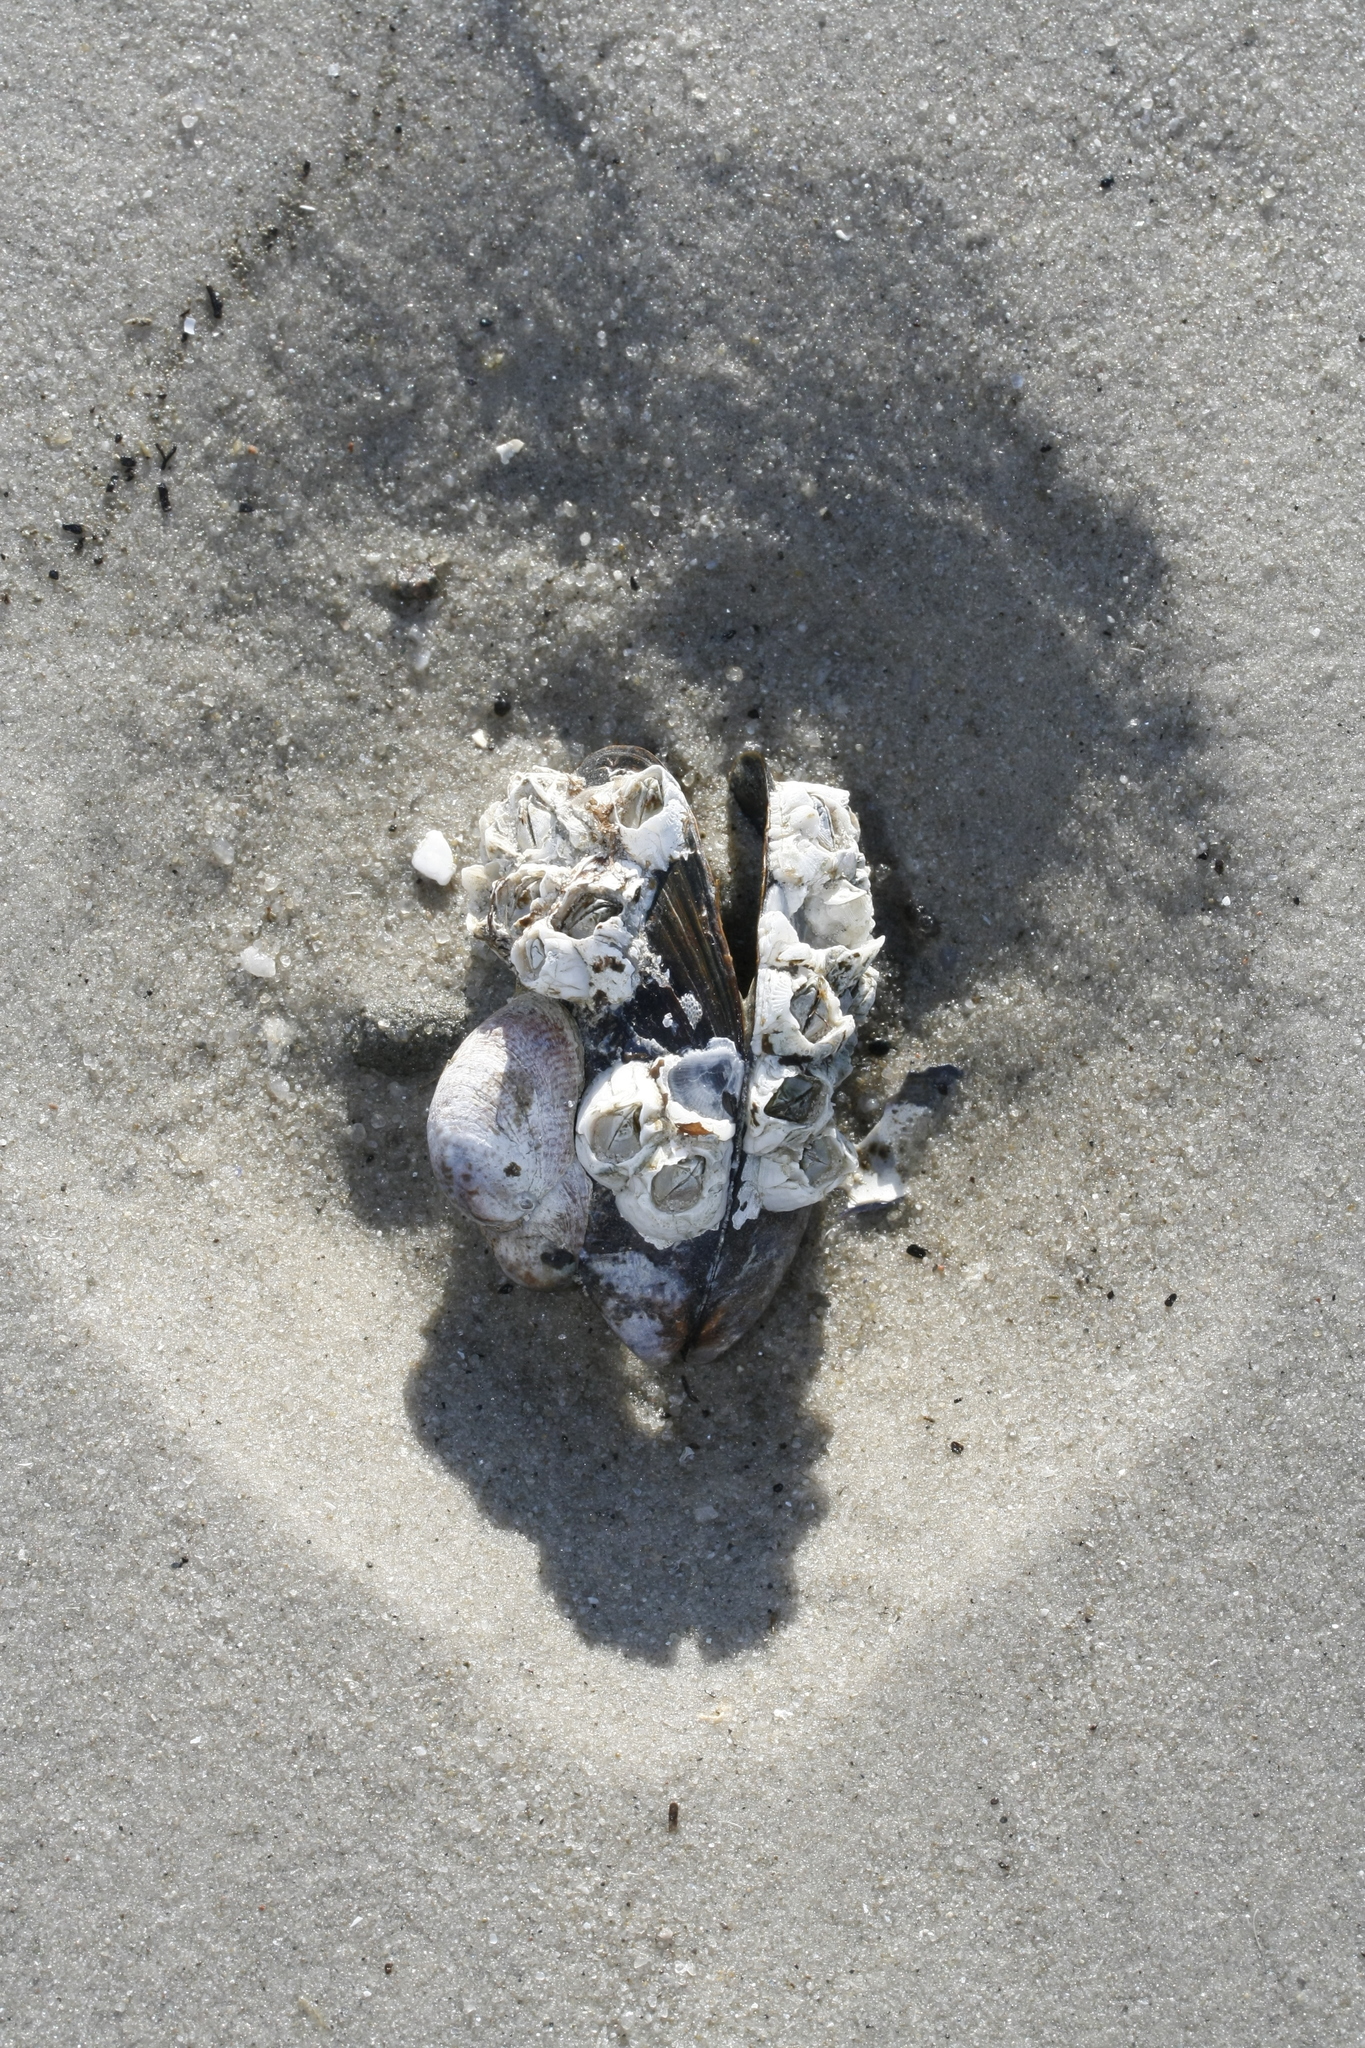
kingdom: Animalia
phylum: Mollusca
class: Gastropoda
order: Littorinimorpha
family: Calyptraeidae
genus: Crepidula
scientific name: Crepidula fornicata
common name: Slipper limpet
